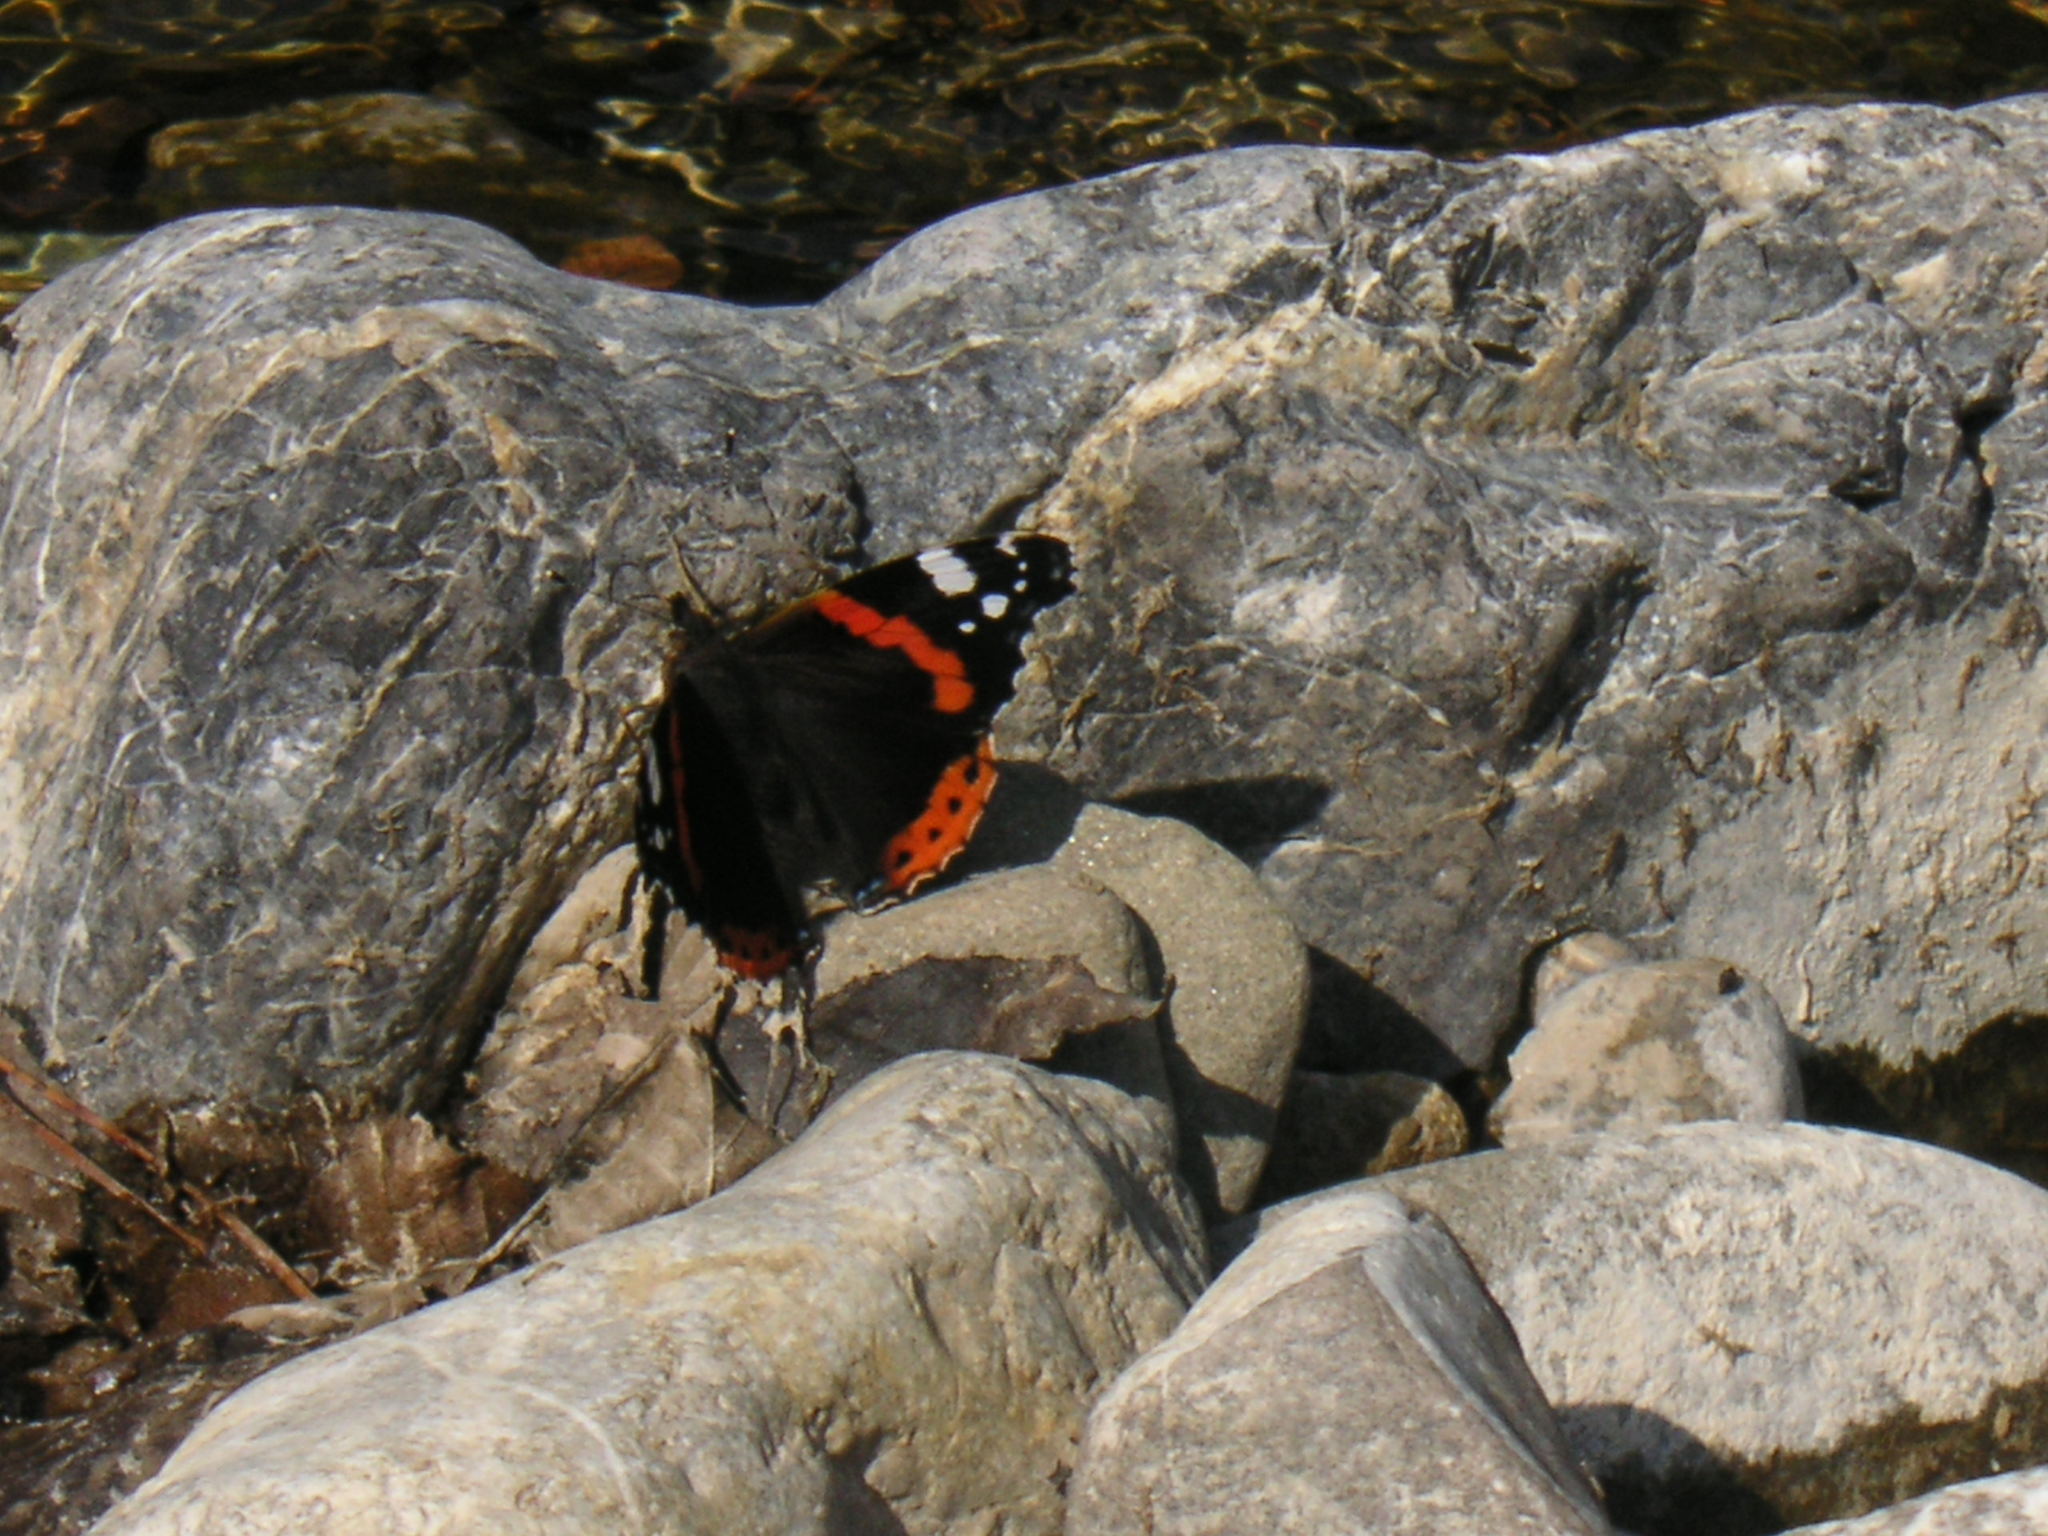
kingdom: Animalia
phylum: Arthropoda
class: Insecta
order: Lepidoptera
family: Nymphalidae
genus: Vanessa
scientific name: Vanessa atalanta
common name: Red admiral
